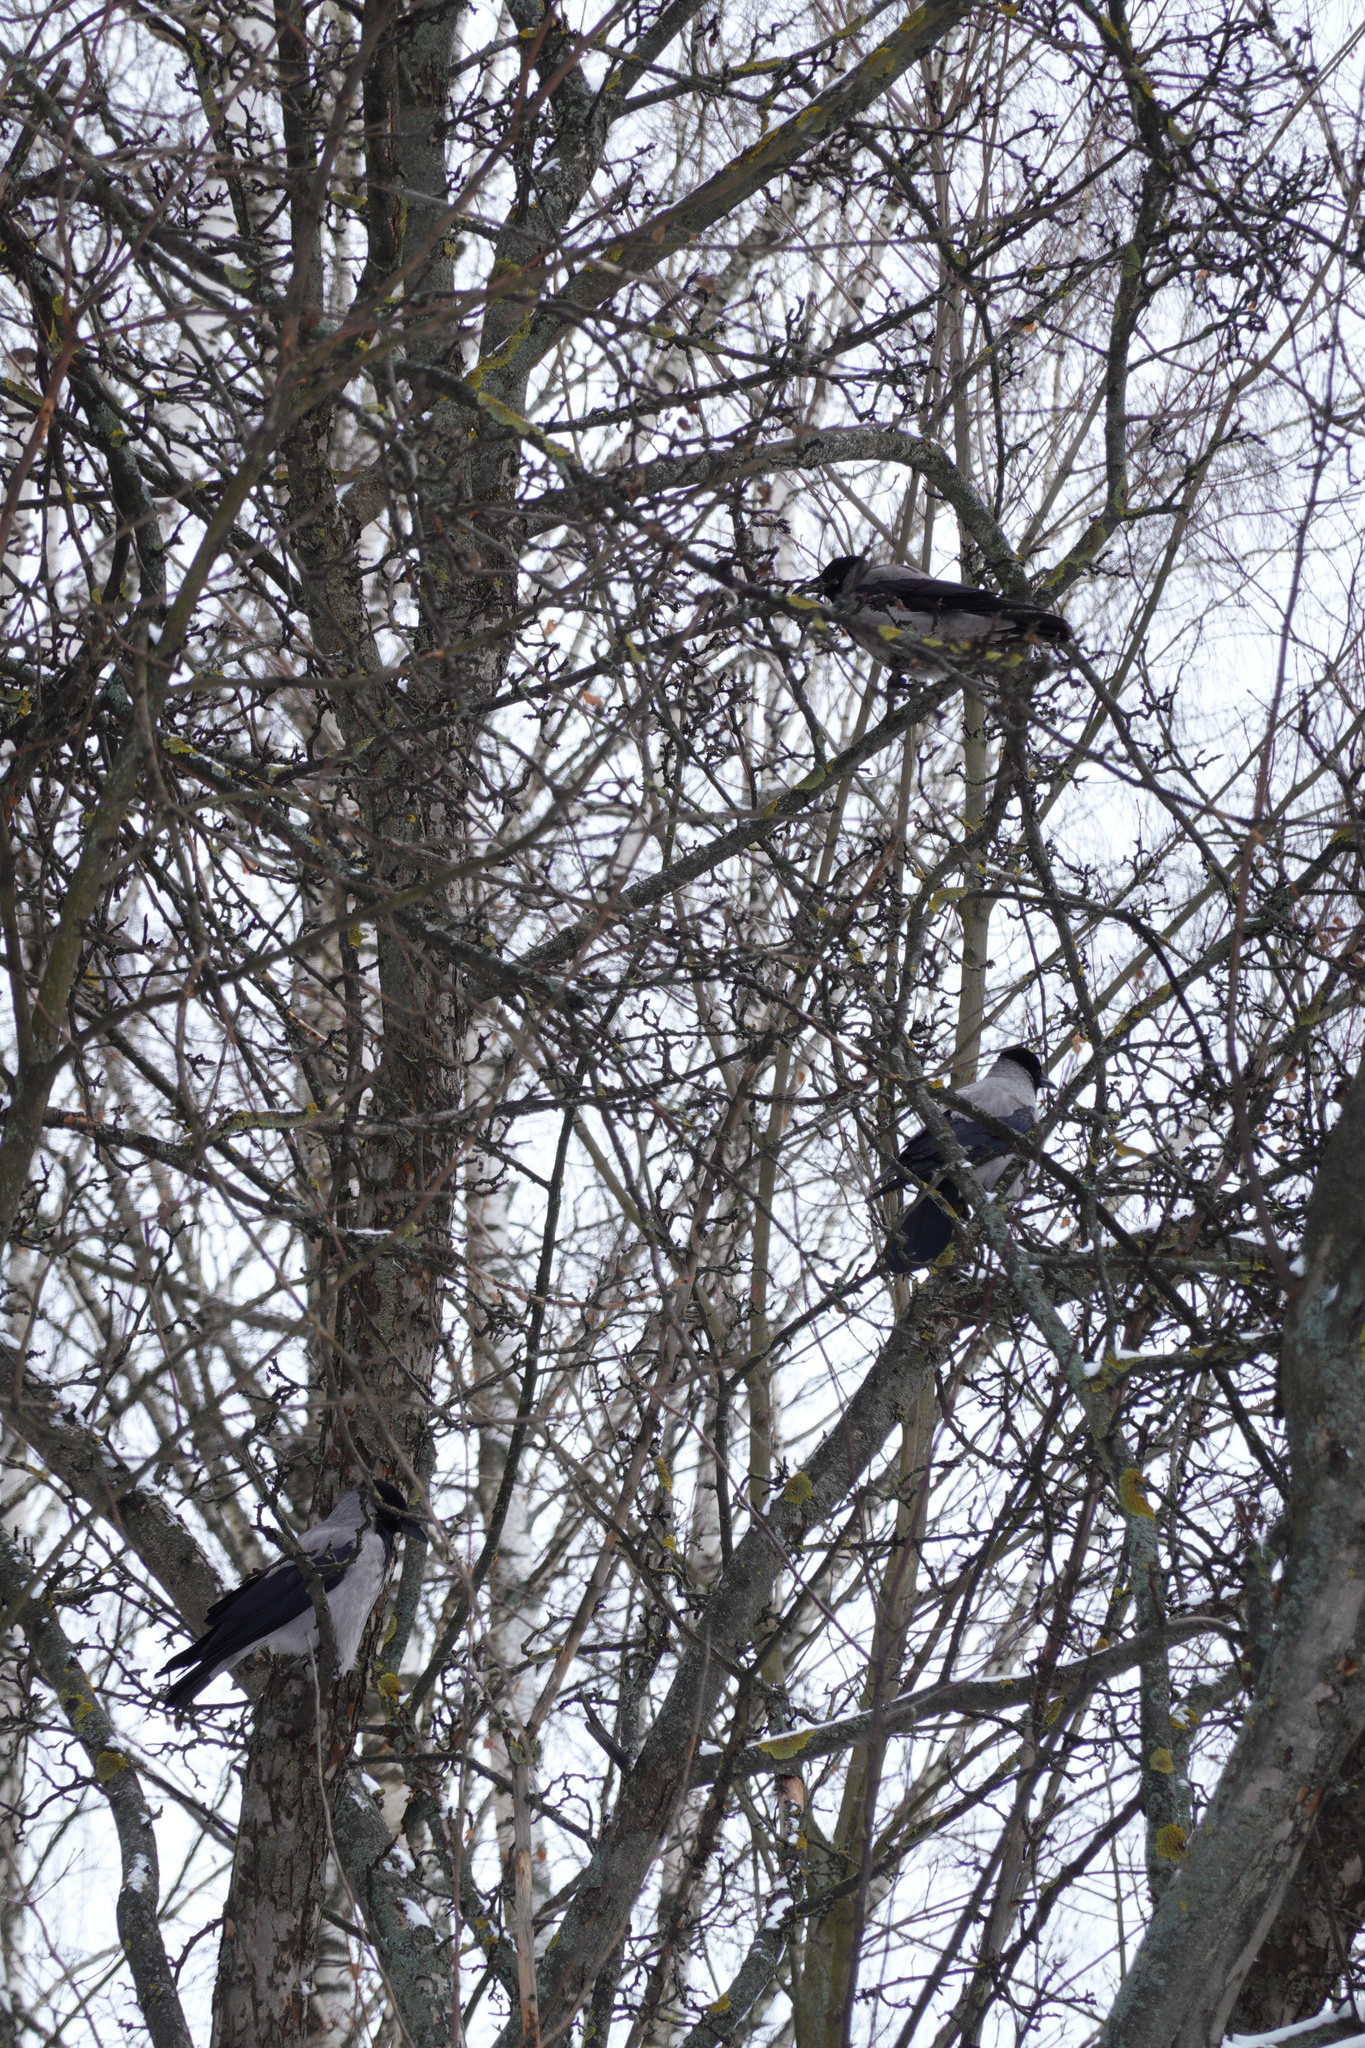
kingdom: Animalia
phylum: Chordata
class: Aves
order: Passeriformes
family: Corvidae
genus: Corvus
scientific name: Corvus cornix
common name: Hooded crow
